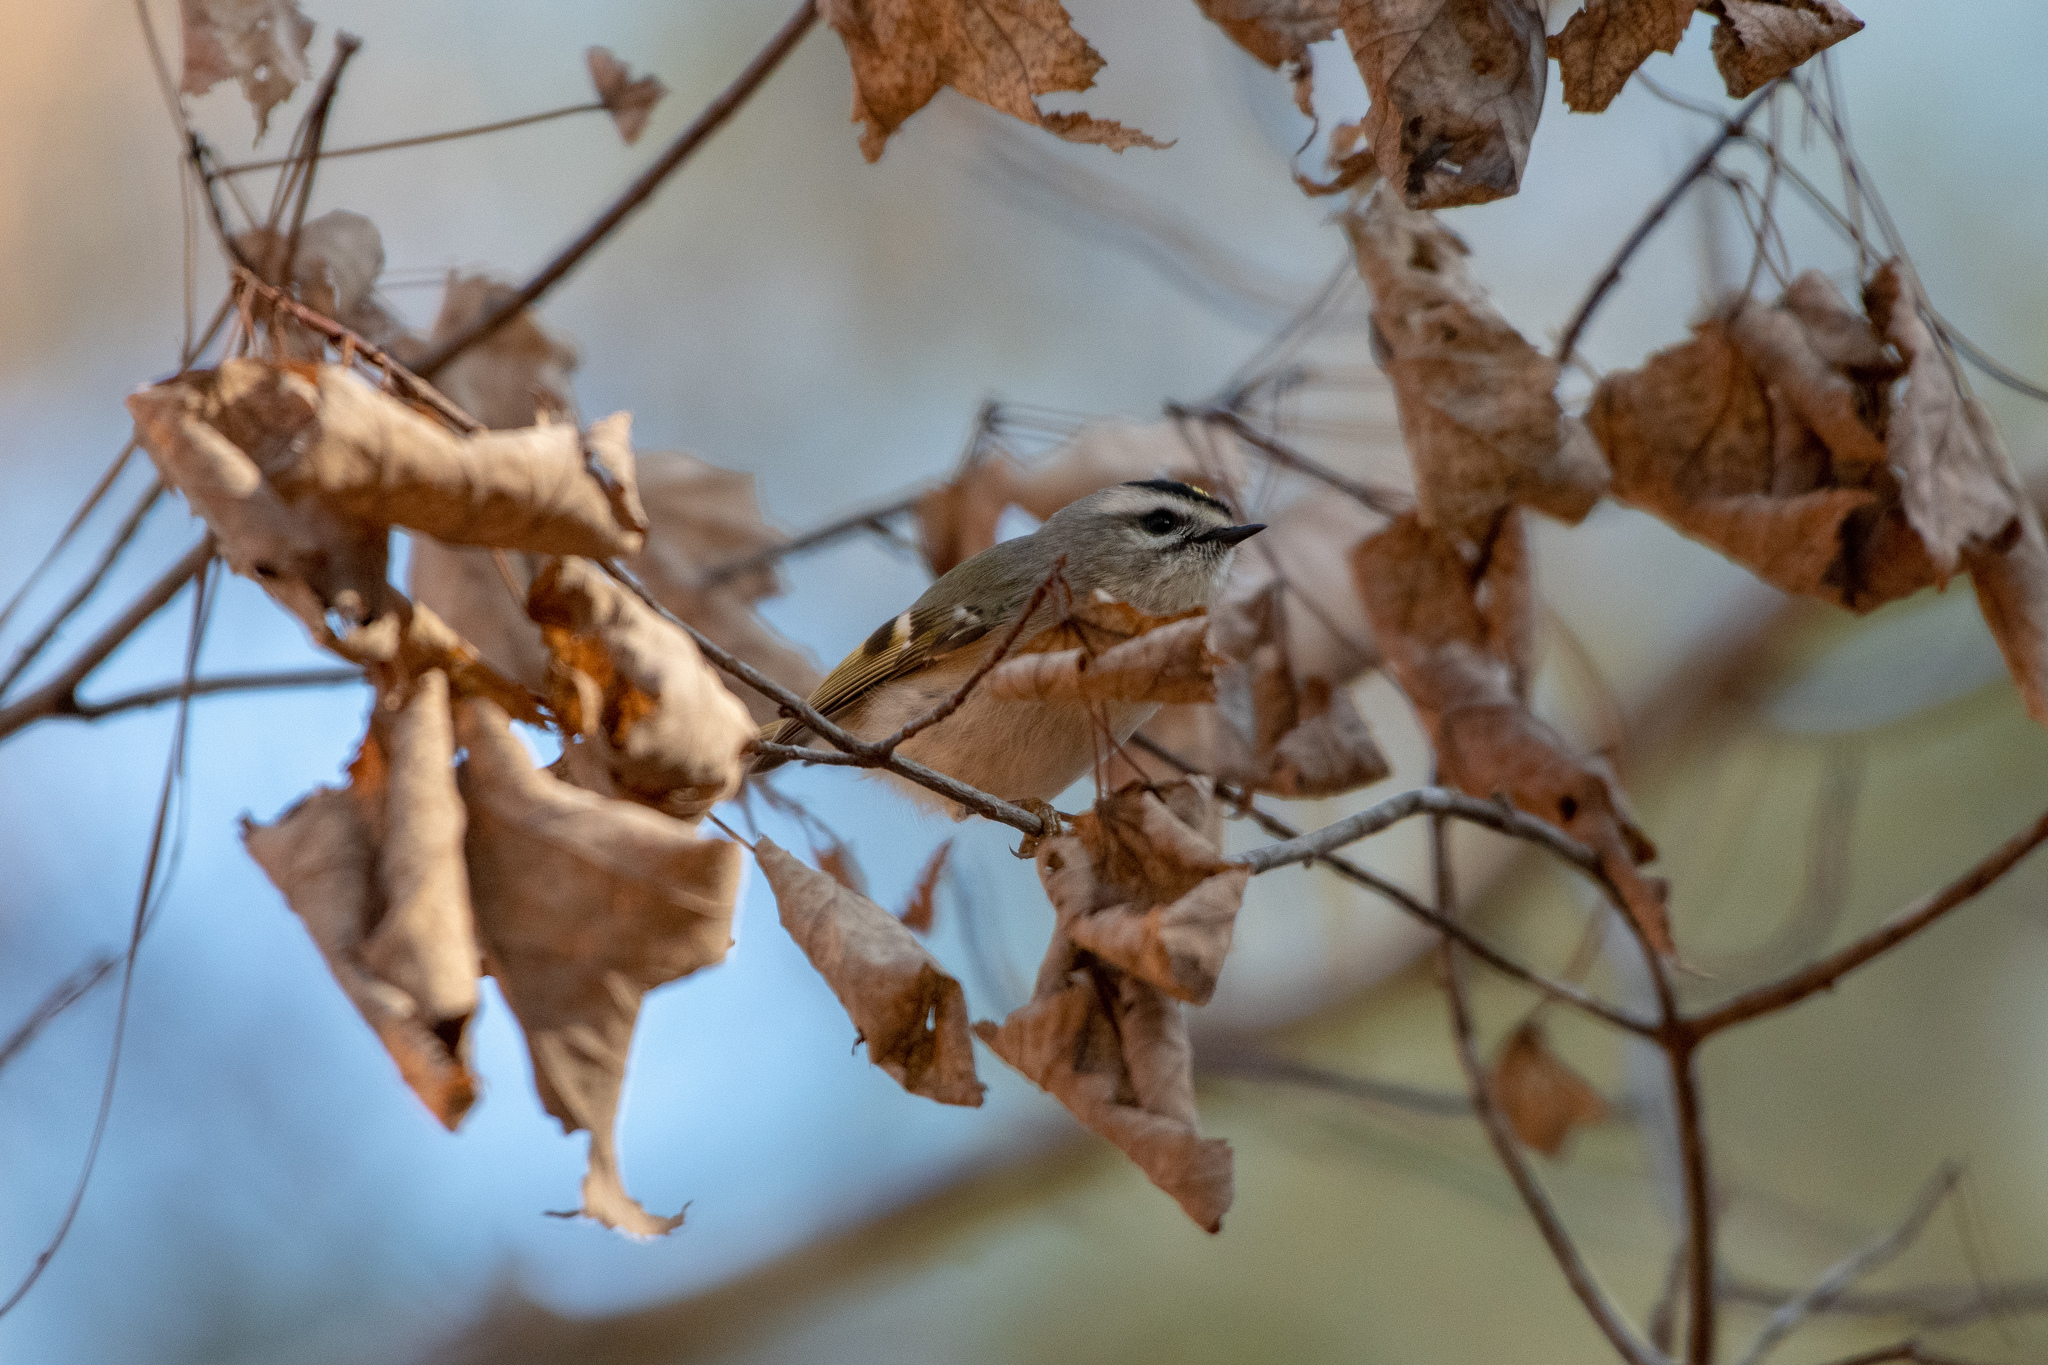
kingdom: Animalia
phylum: Chordata
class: Aves
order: Passeriformes
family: Regulidae
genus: Regulus
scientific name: Regulus satrapa
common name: Golden-crowned kinglet
